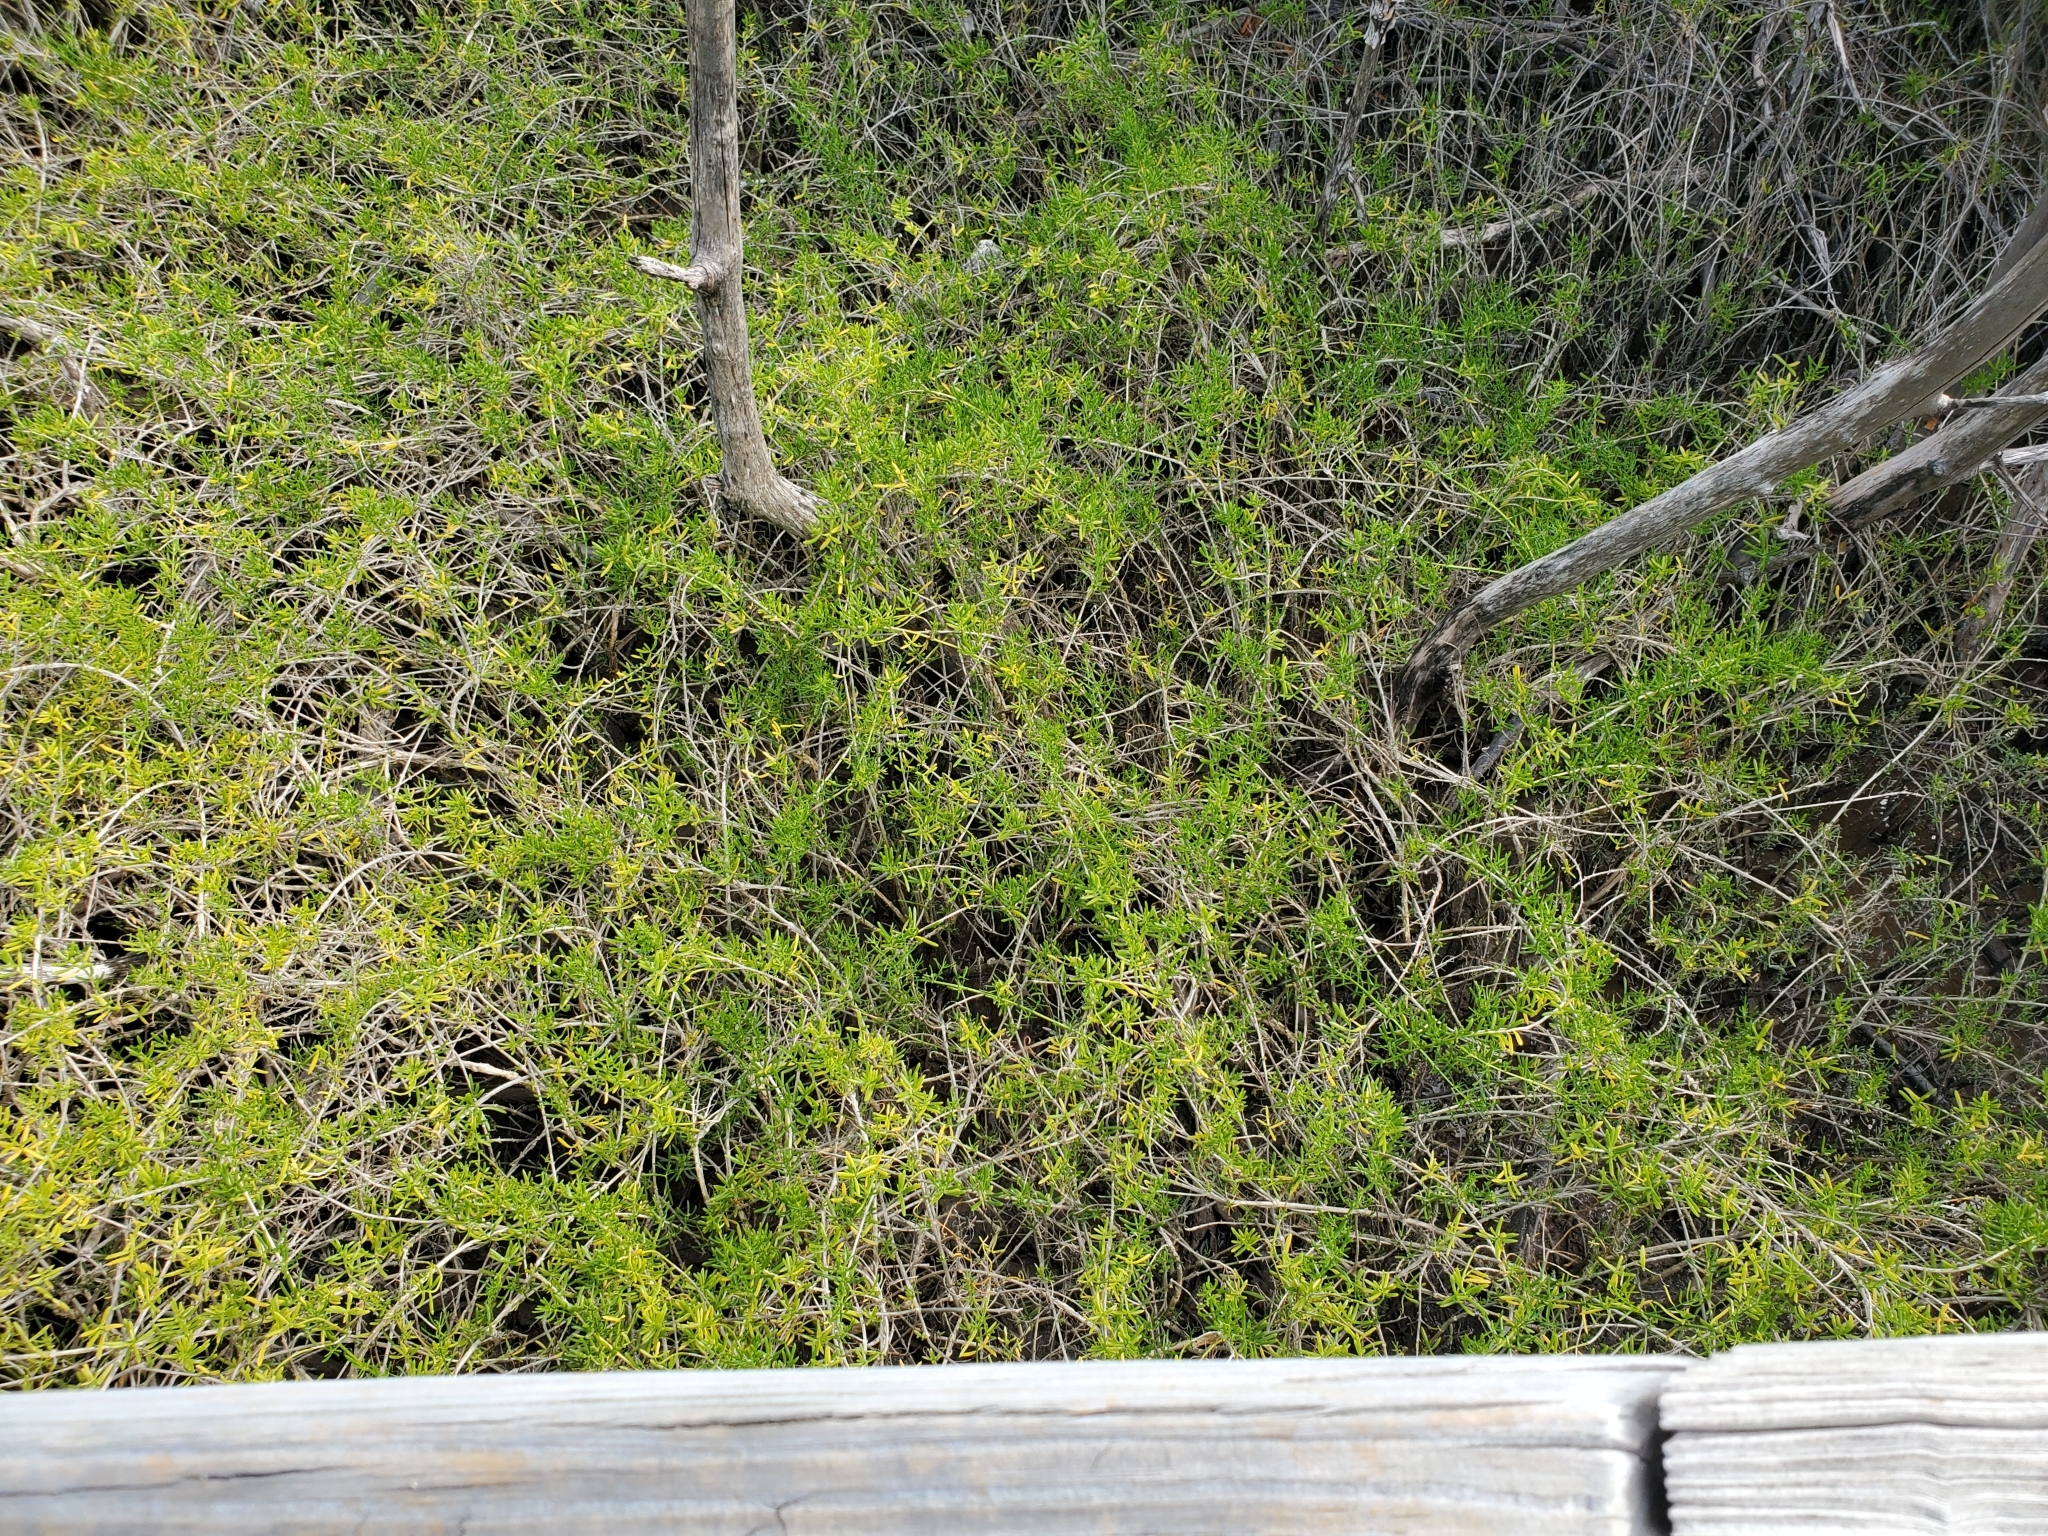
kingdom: Plantae
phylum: Tracheophyta
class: Magnoliopsida
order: Brassicales
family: Bataceae
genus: Batis
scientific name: Batis maritima
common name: Turtleweed
